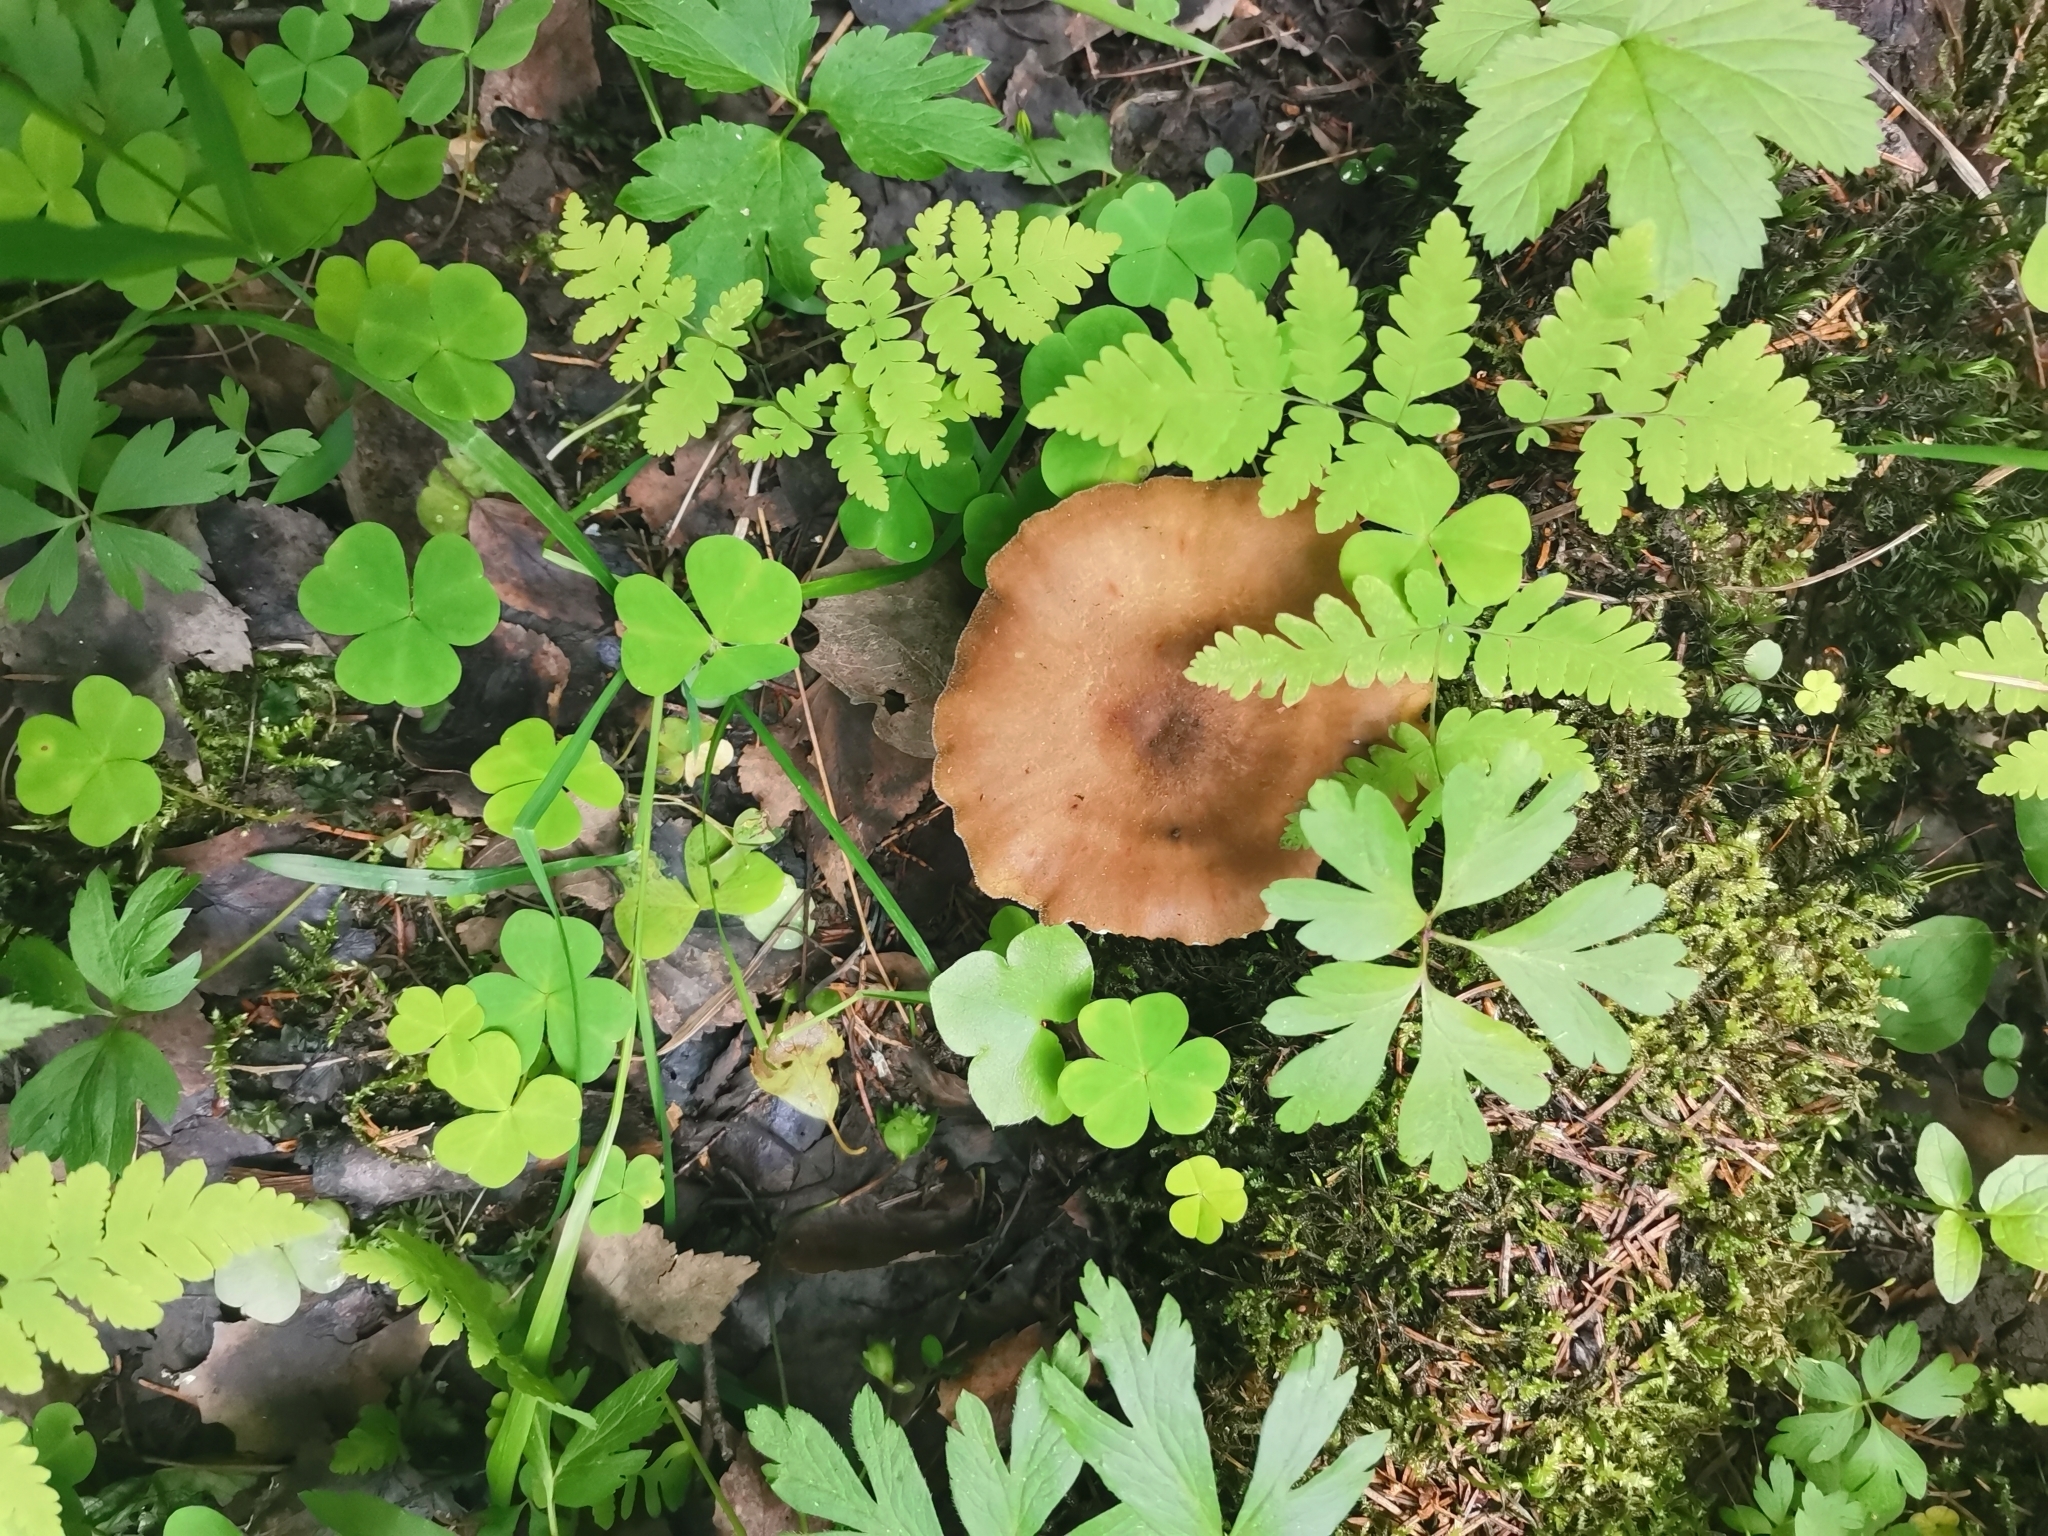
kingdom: Fungi
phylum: Basidiomycota
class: Agaricomycetes
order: Polyporales
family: Polyporaceae
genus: Lentinus
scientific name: Lentinus substrictus
